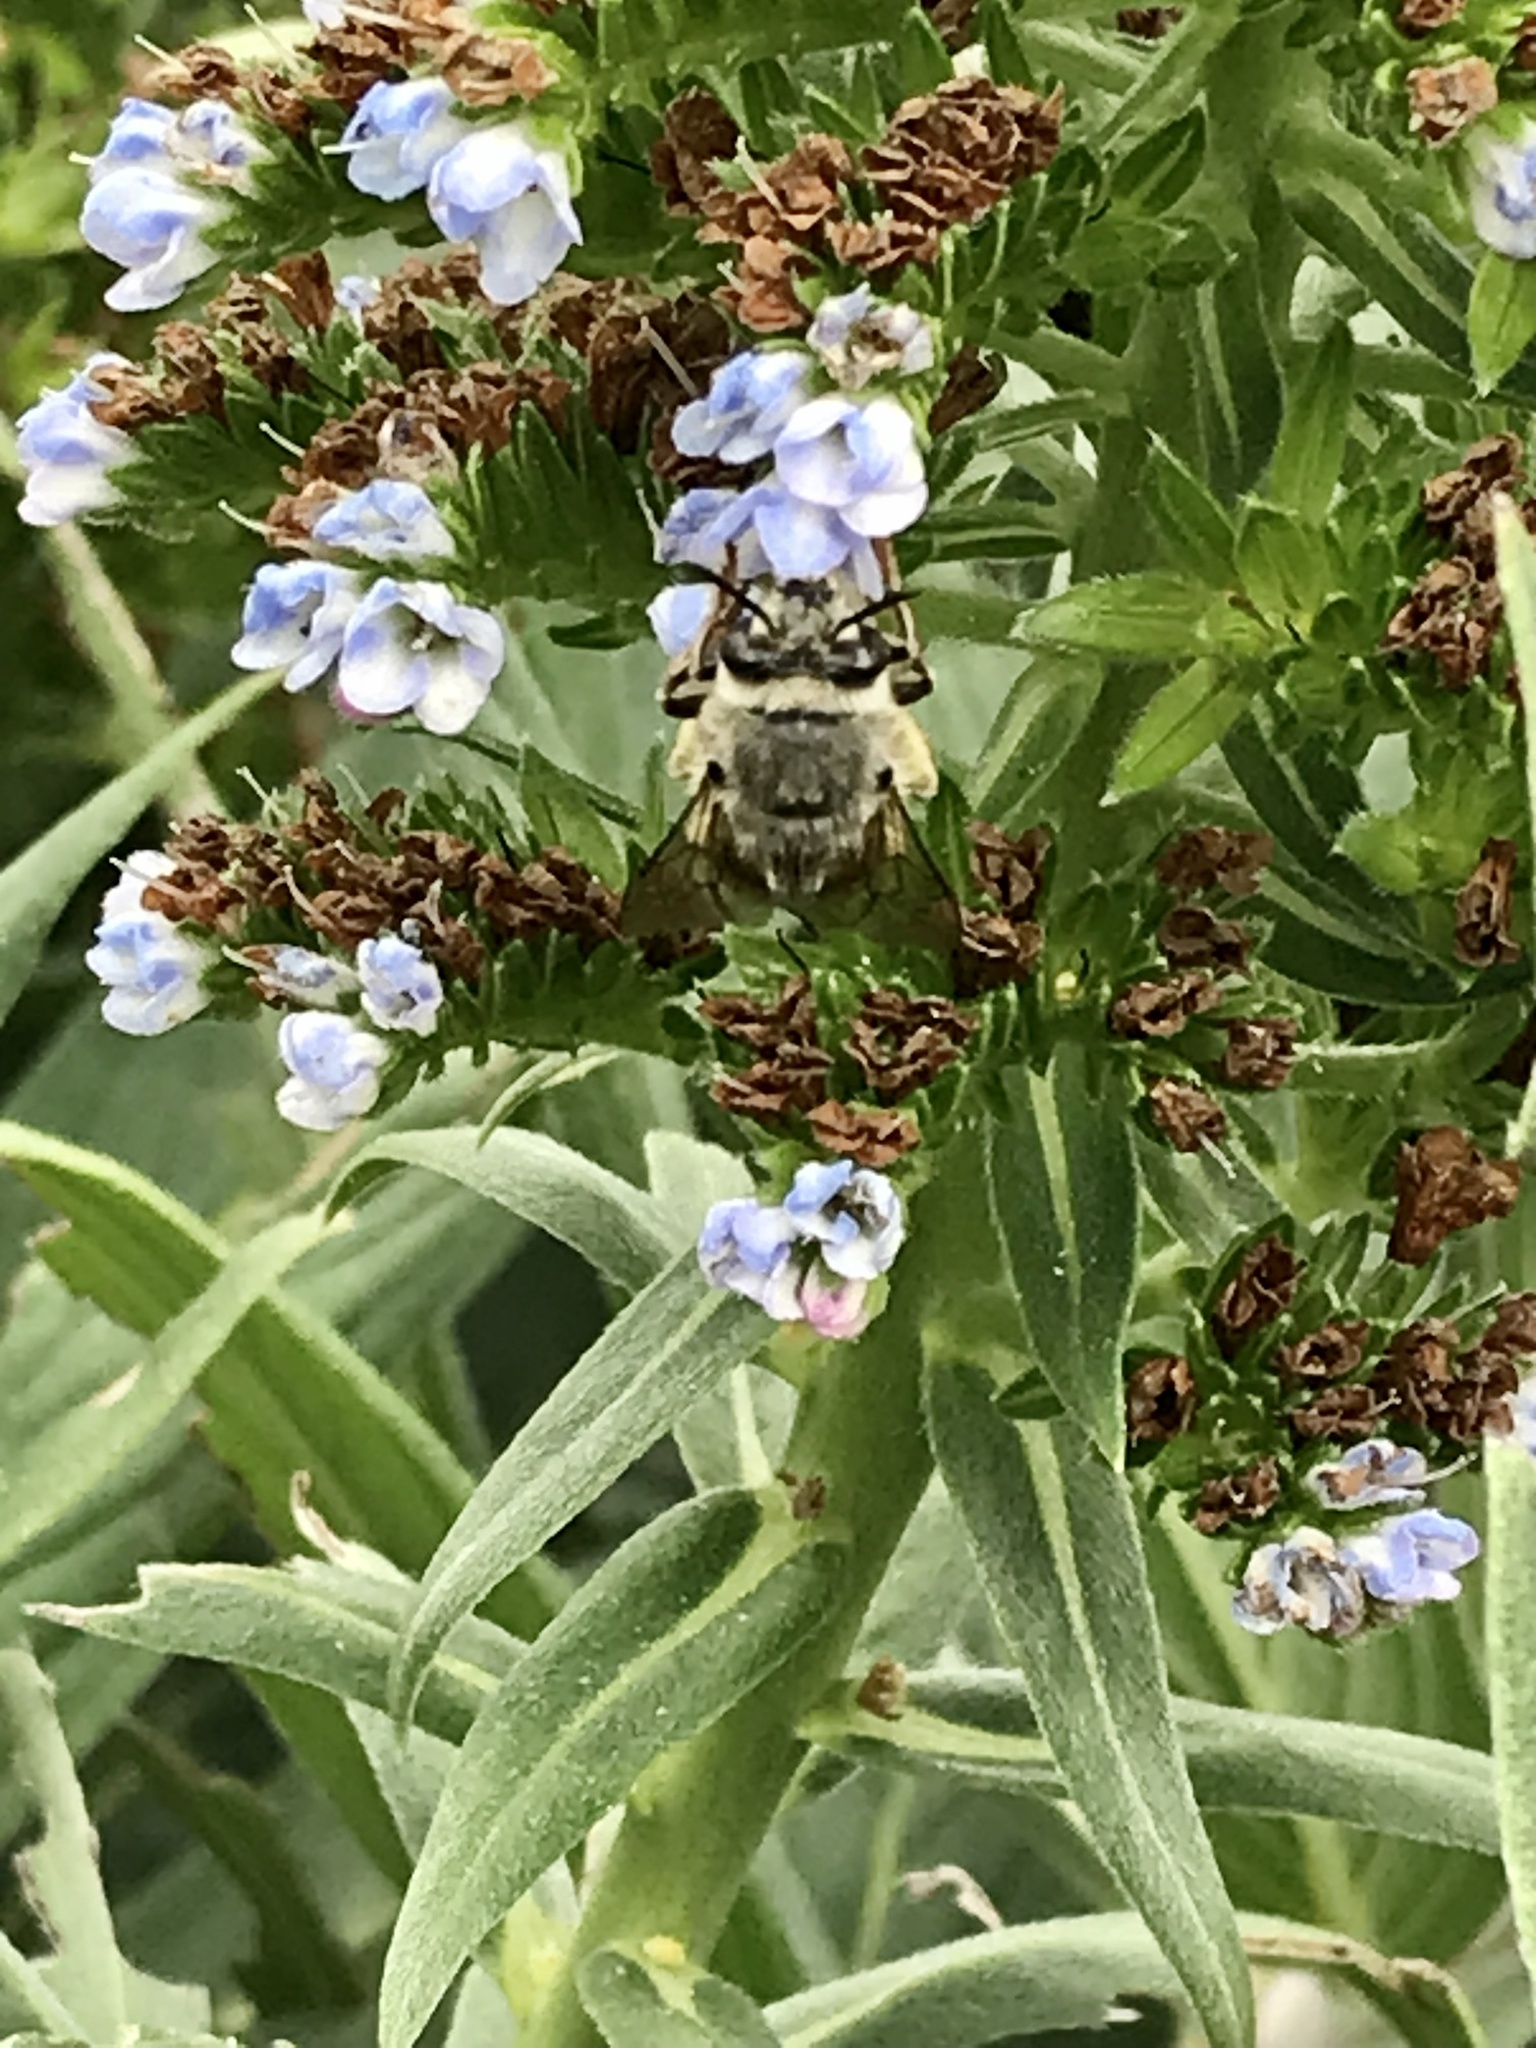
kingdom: Animalia
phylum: Arthropoda
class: Insecta
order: Hymenoptera
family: Apidae
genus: Habropoda
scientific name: Habropoda depressa
